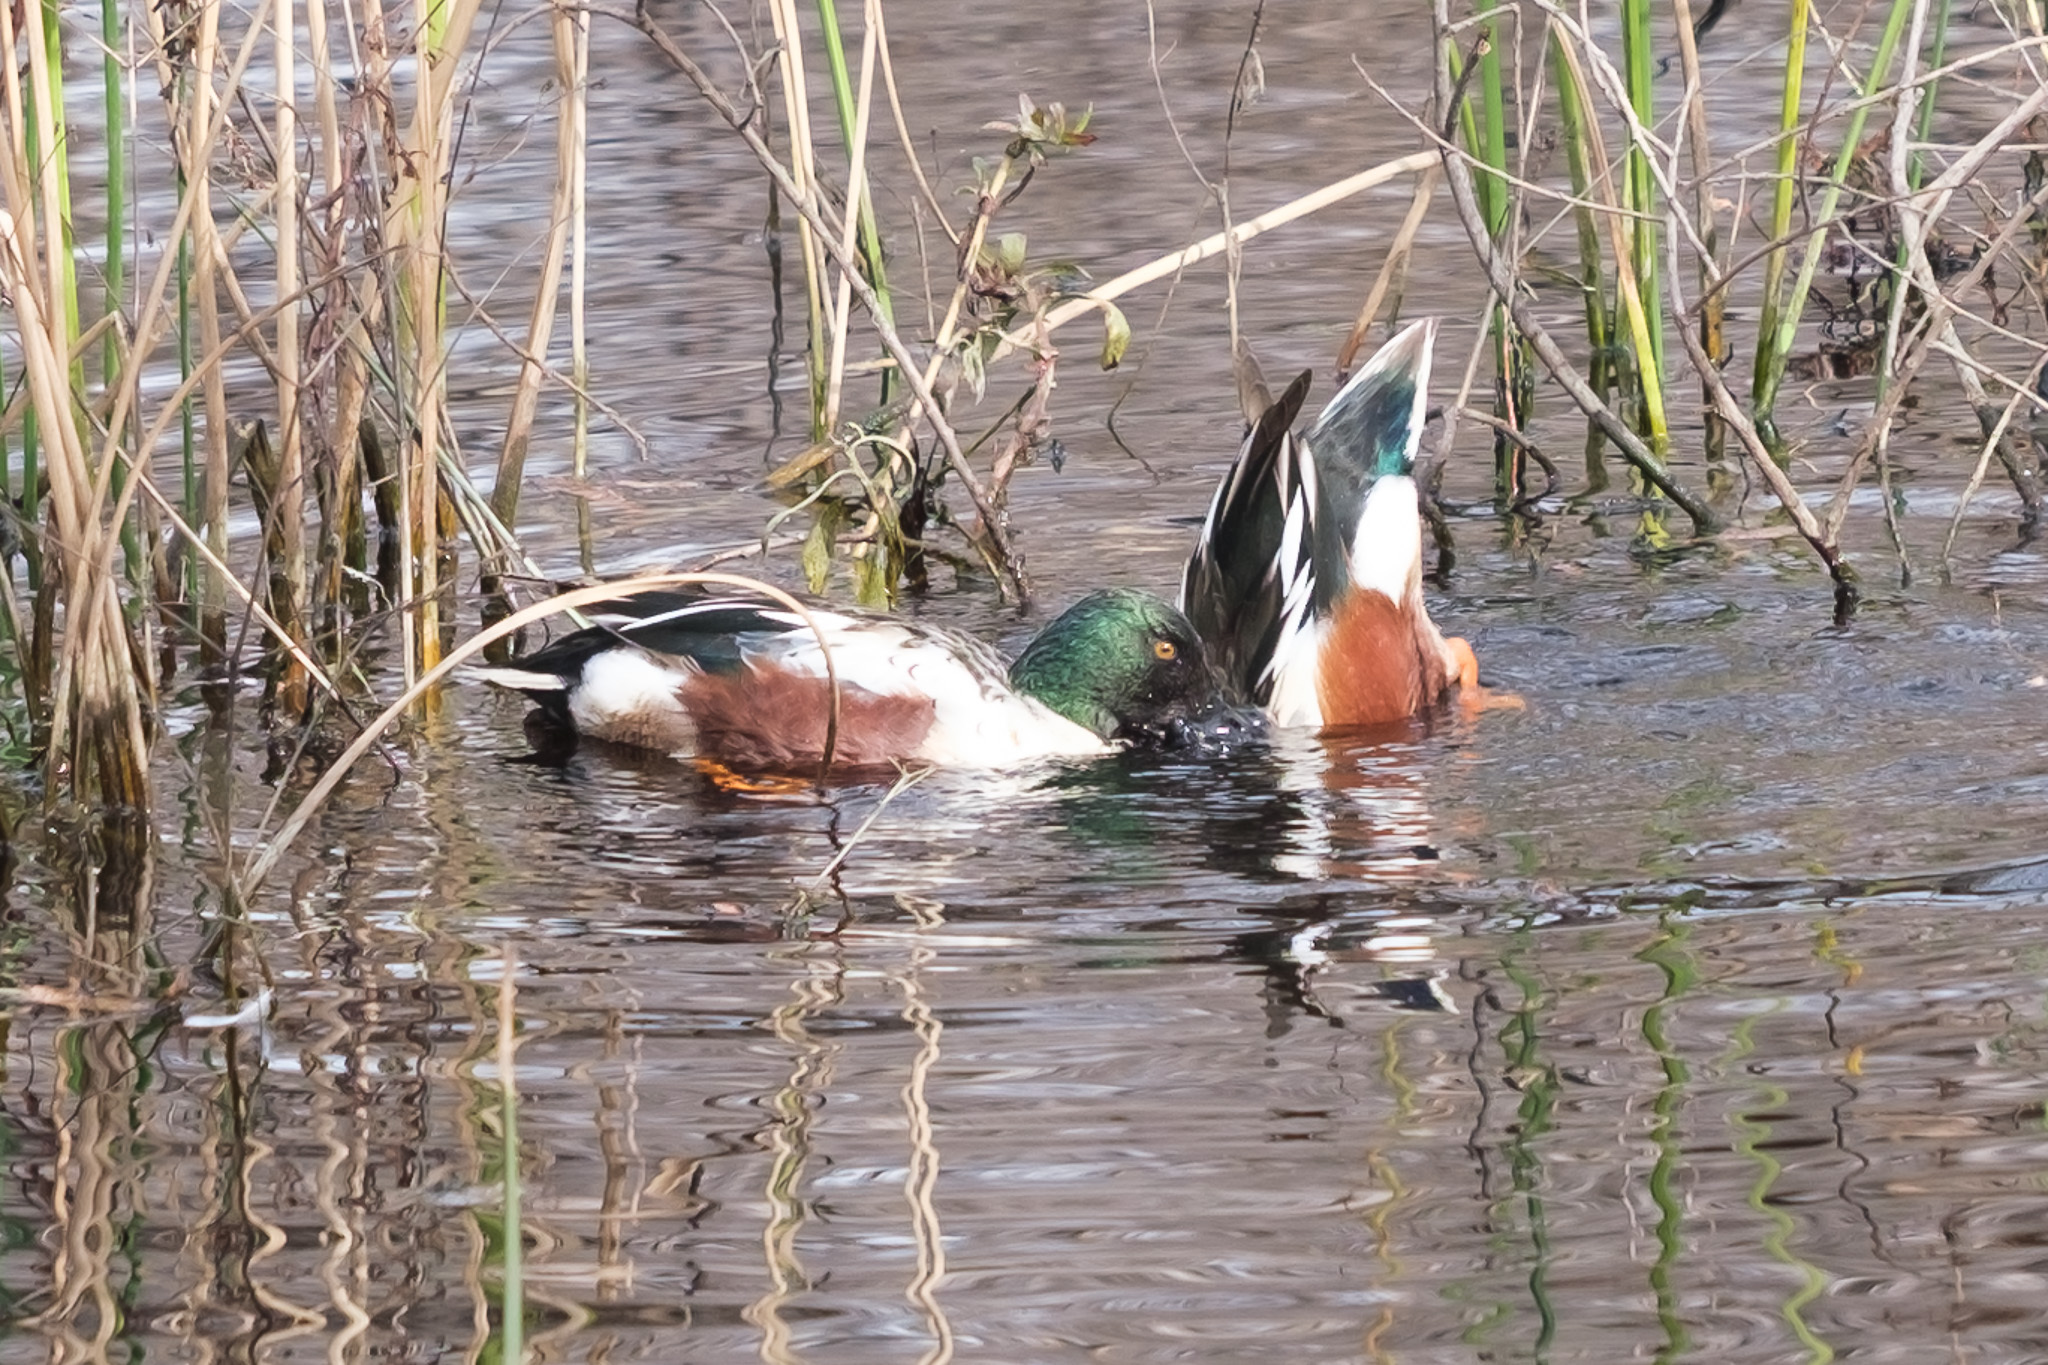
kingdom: Animalia
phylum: Chordata
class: Aves
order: Anseriformes
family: Anatidae
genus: Spatula
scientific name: Spatula clypeata
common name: Northern shoveler
